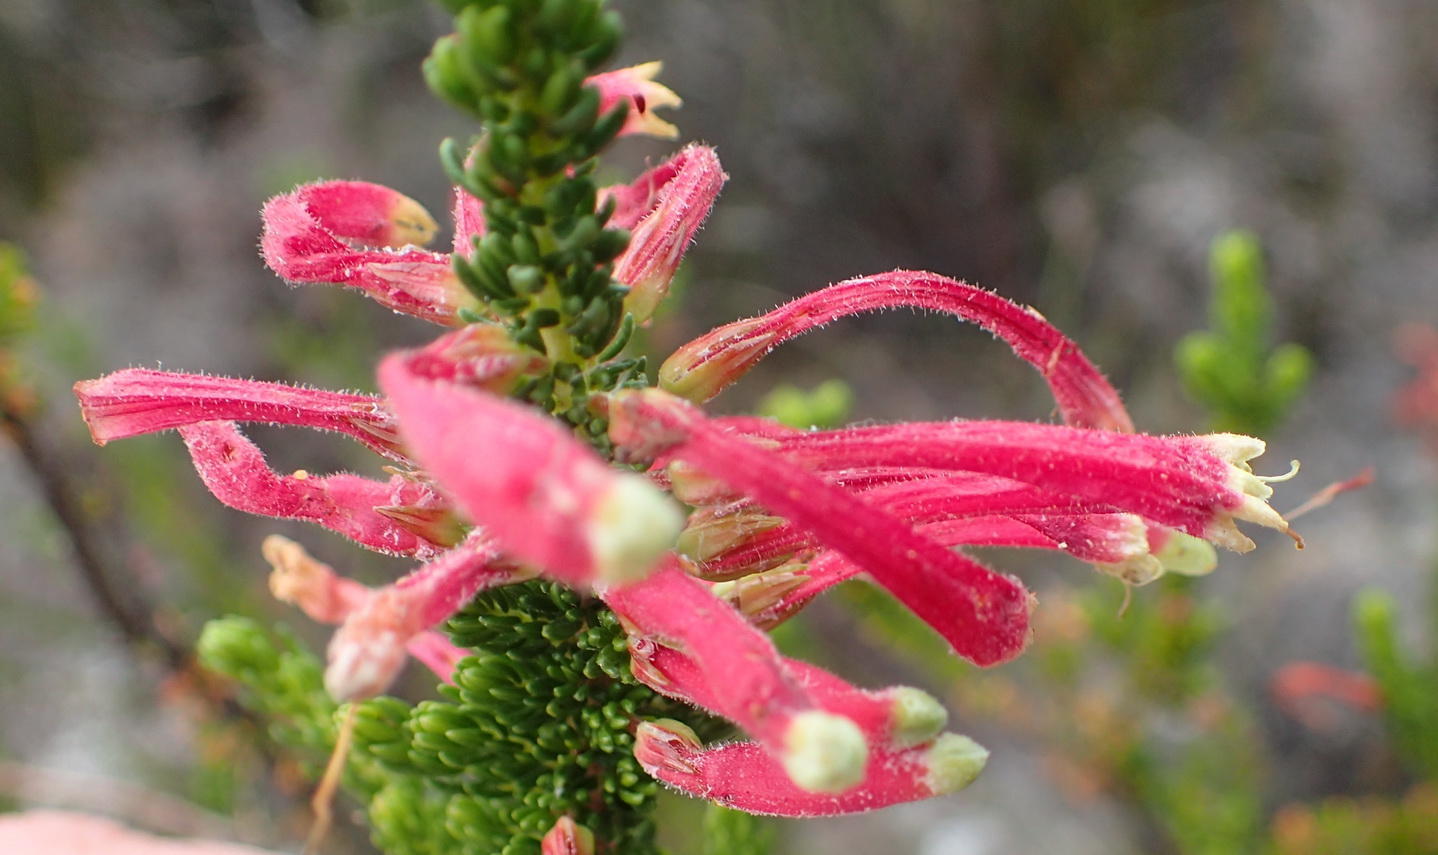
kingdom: Plantae
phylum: Tracheophyta
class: Magnoliopsida
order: Ericales
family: Ericaceae
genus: Erica
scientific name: Erica densifolia
